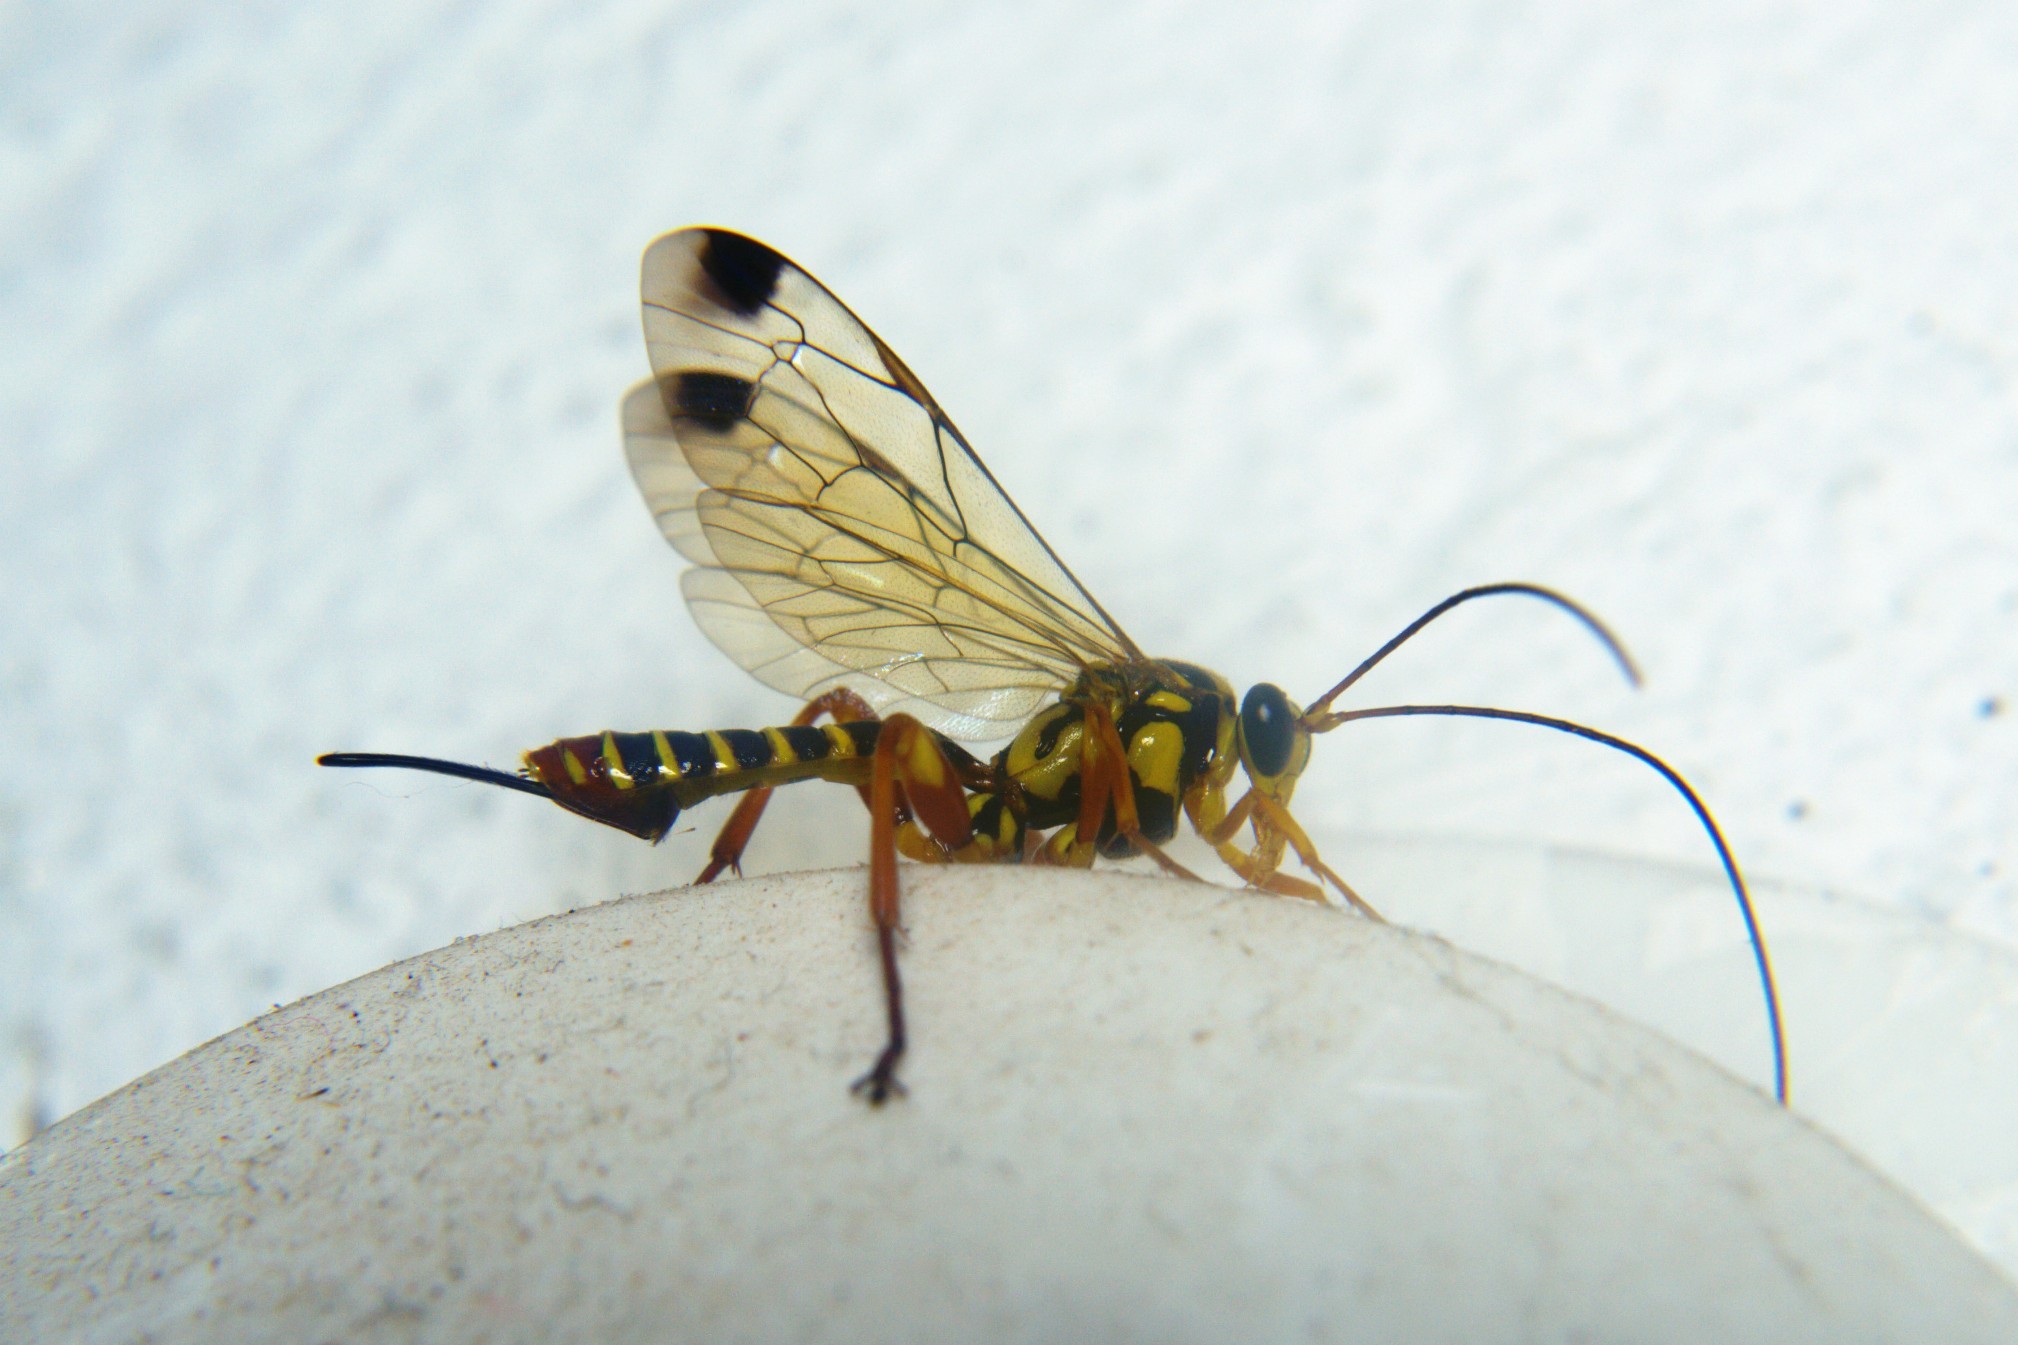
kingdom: Animalia
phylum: Arthropoda
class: Insecta
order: Hymenoptera
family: Ichneumonidae
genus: Echthromorpha
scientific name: Echthromorpha agrestoria
